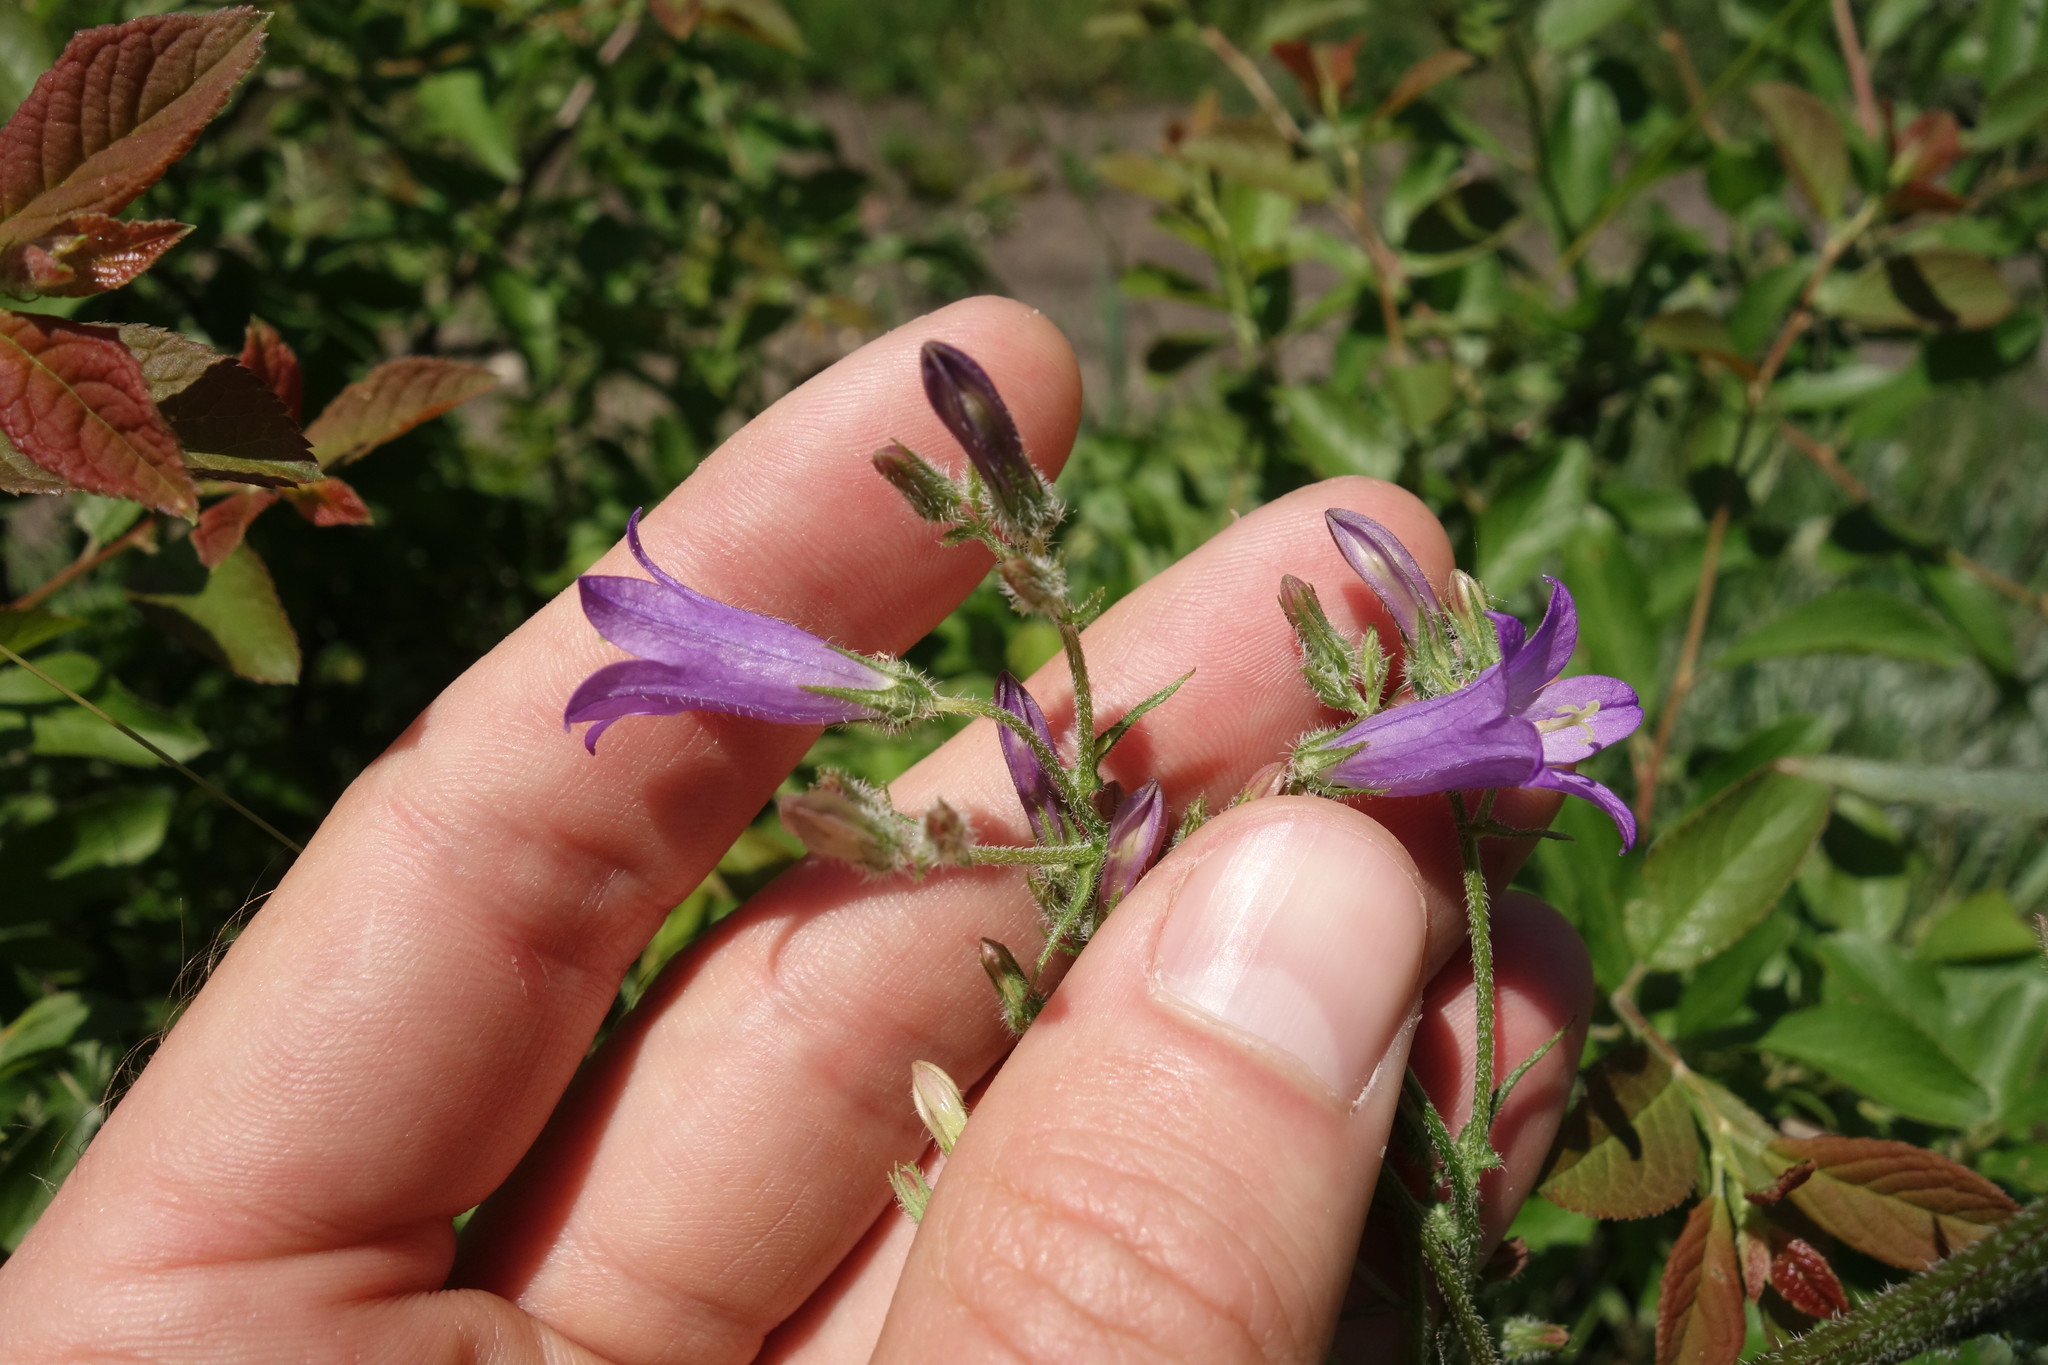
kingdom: Plantae
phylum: Tracheophyta
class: Magnoliopsida
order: Asterales
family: Campanulaceae
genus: Campanula
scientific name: Campanula sibirica
